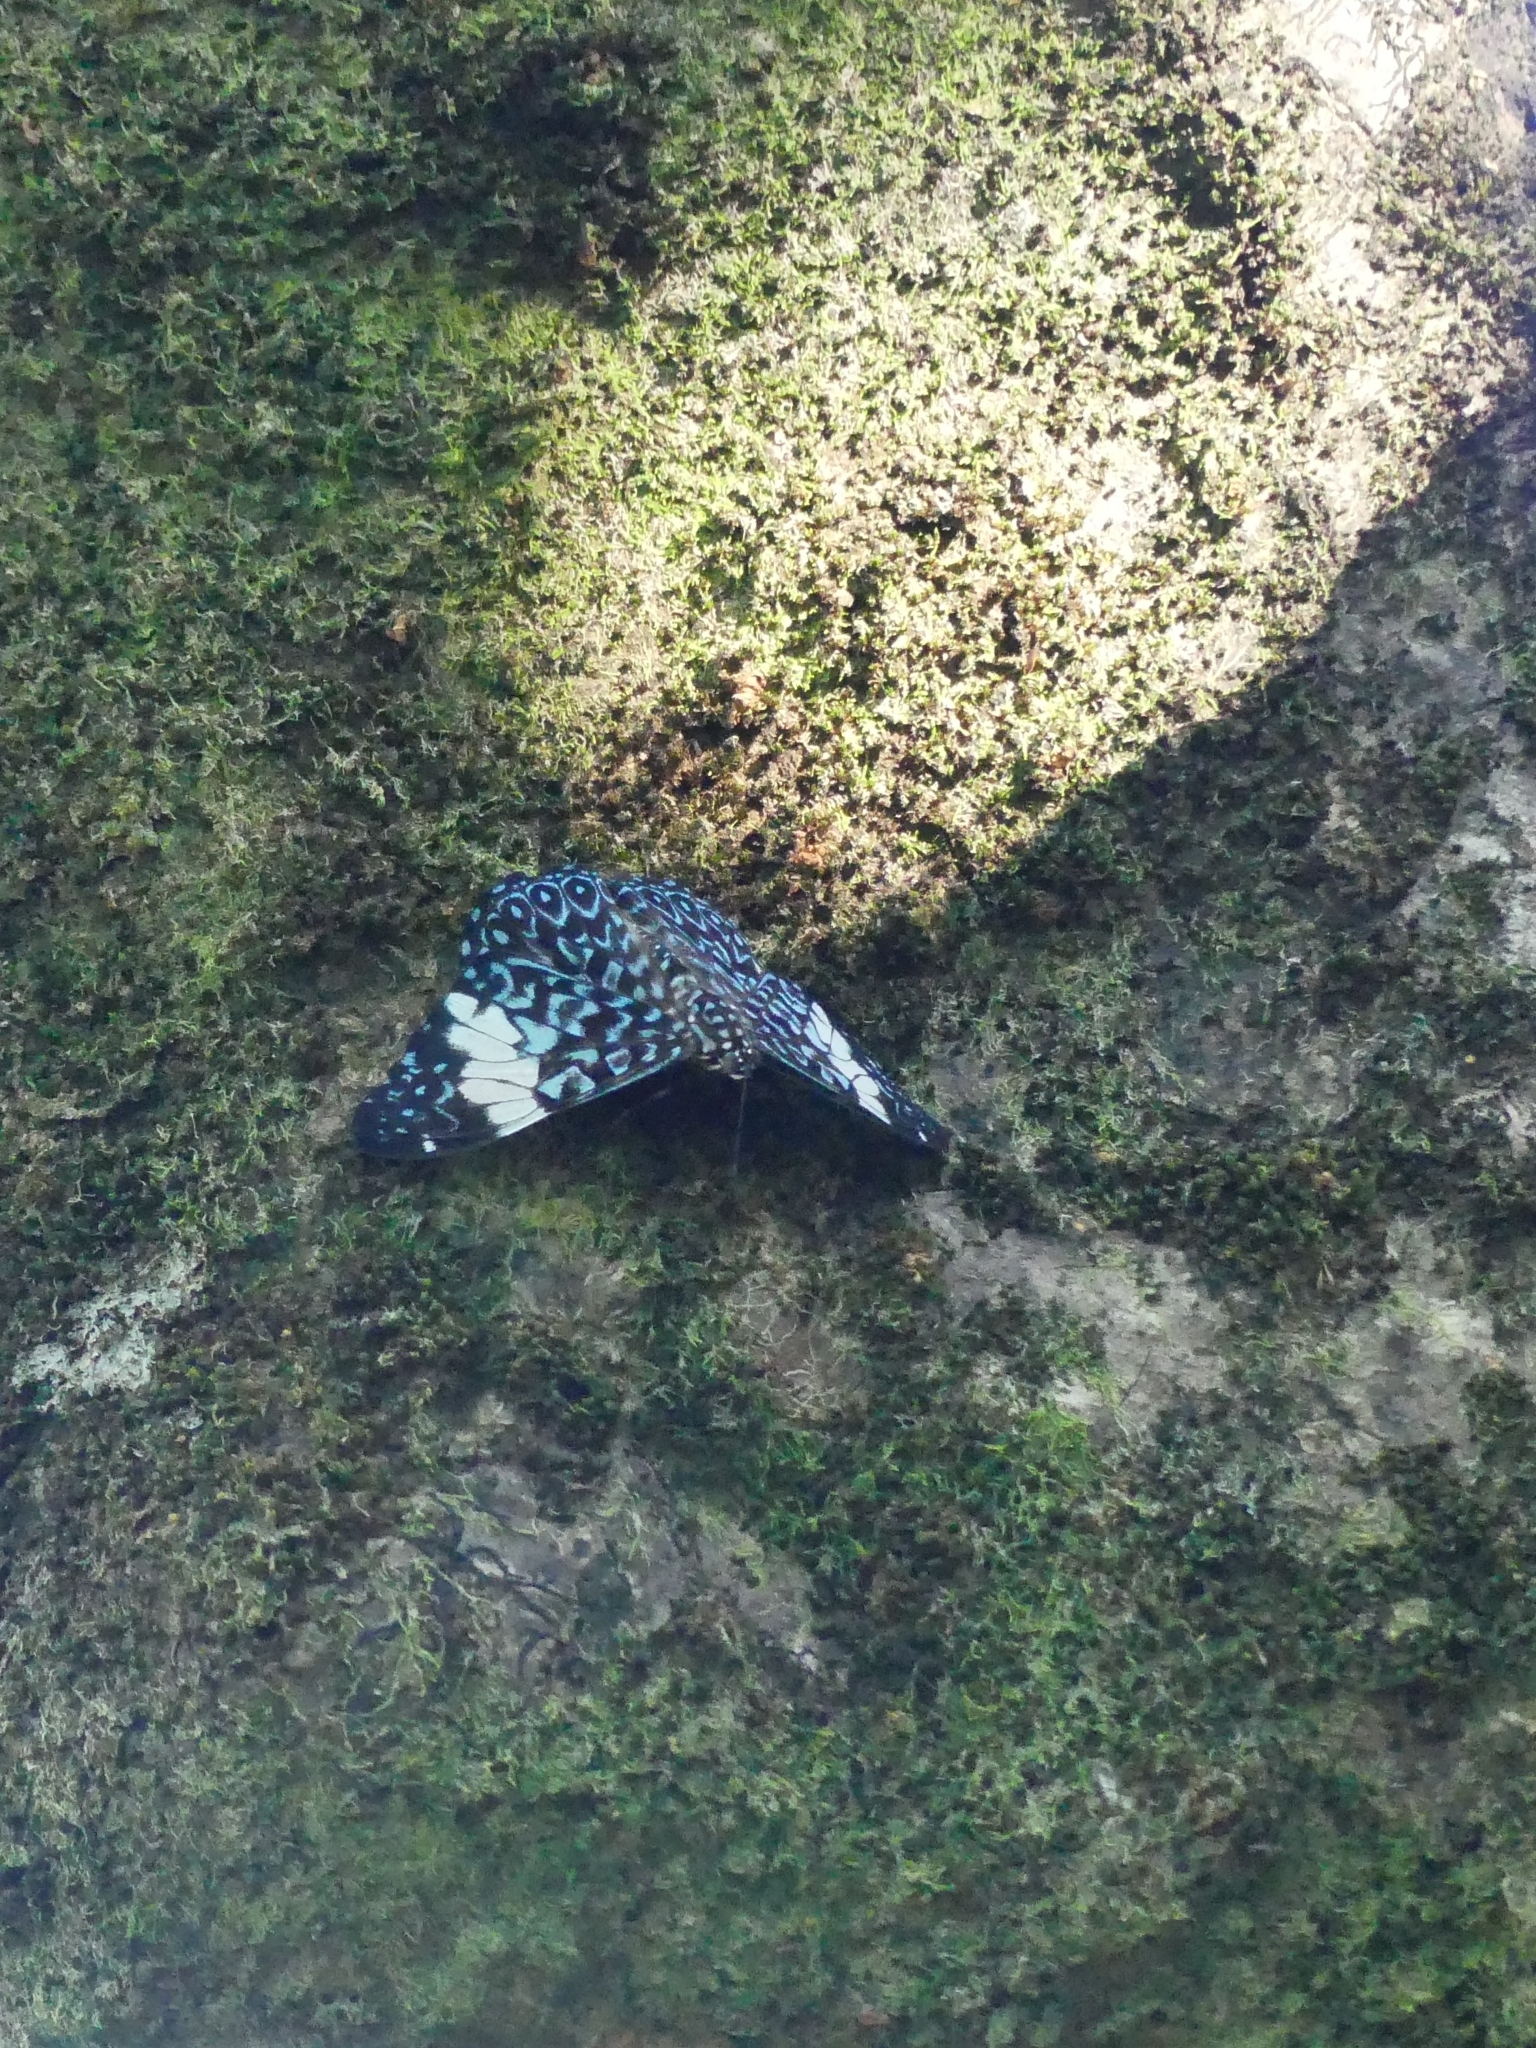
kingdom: Animalia
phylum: Arthropoda
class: Insecta
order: Lepidoptera
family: Nymphalidae
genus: Hamadryas
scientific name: Hamadryas amphinome
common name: Red cracker
